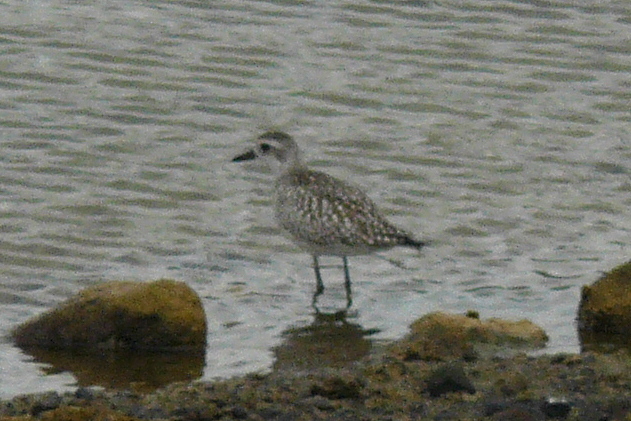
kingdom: Animalia
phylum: Chordata
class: Aves
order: Charadriiformes
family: Charadriidae
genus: Pluvialis
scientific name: Pluvialis squatarola
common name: Grey plover
